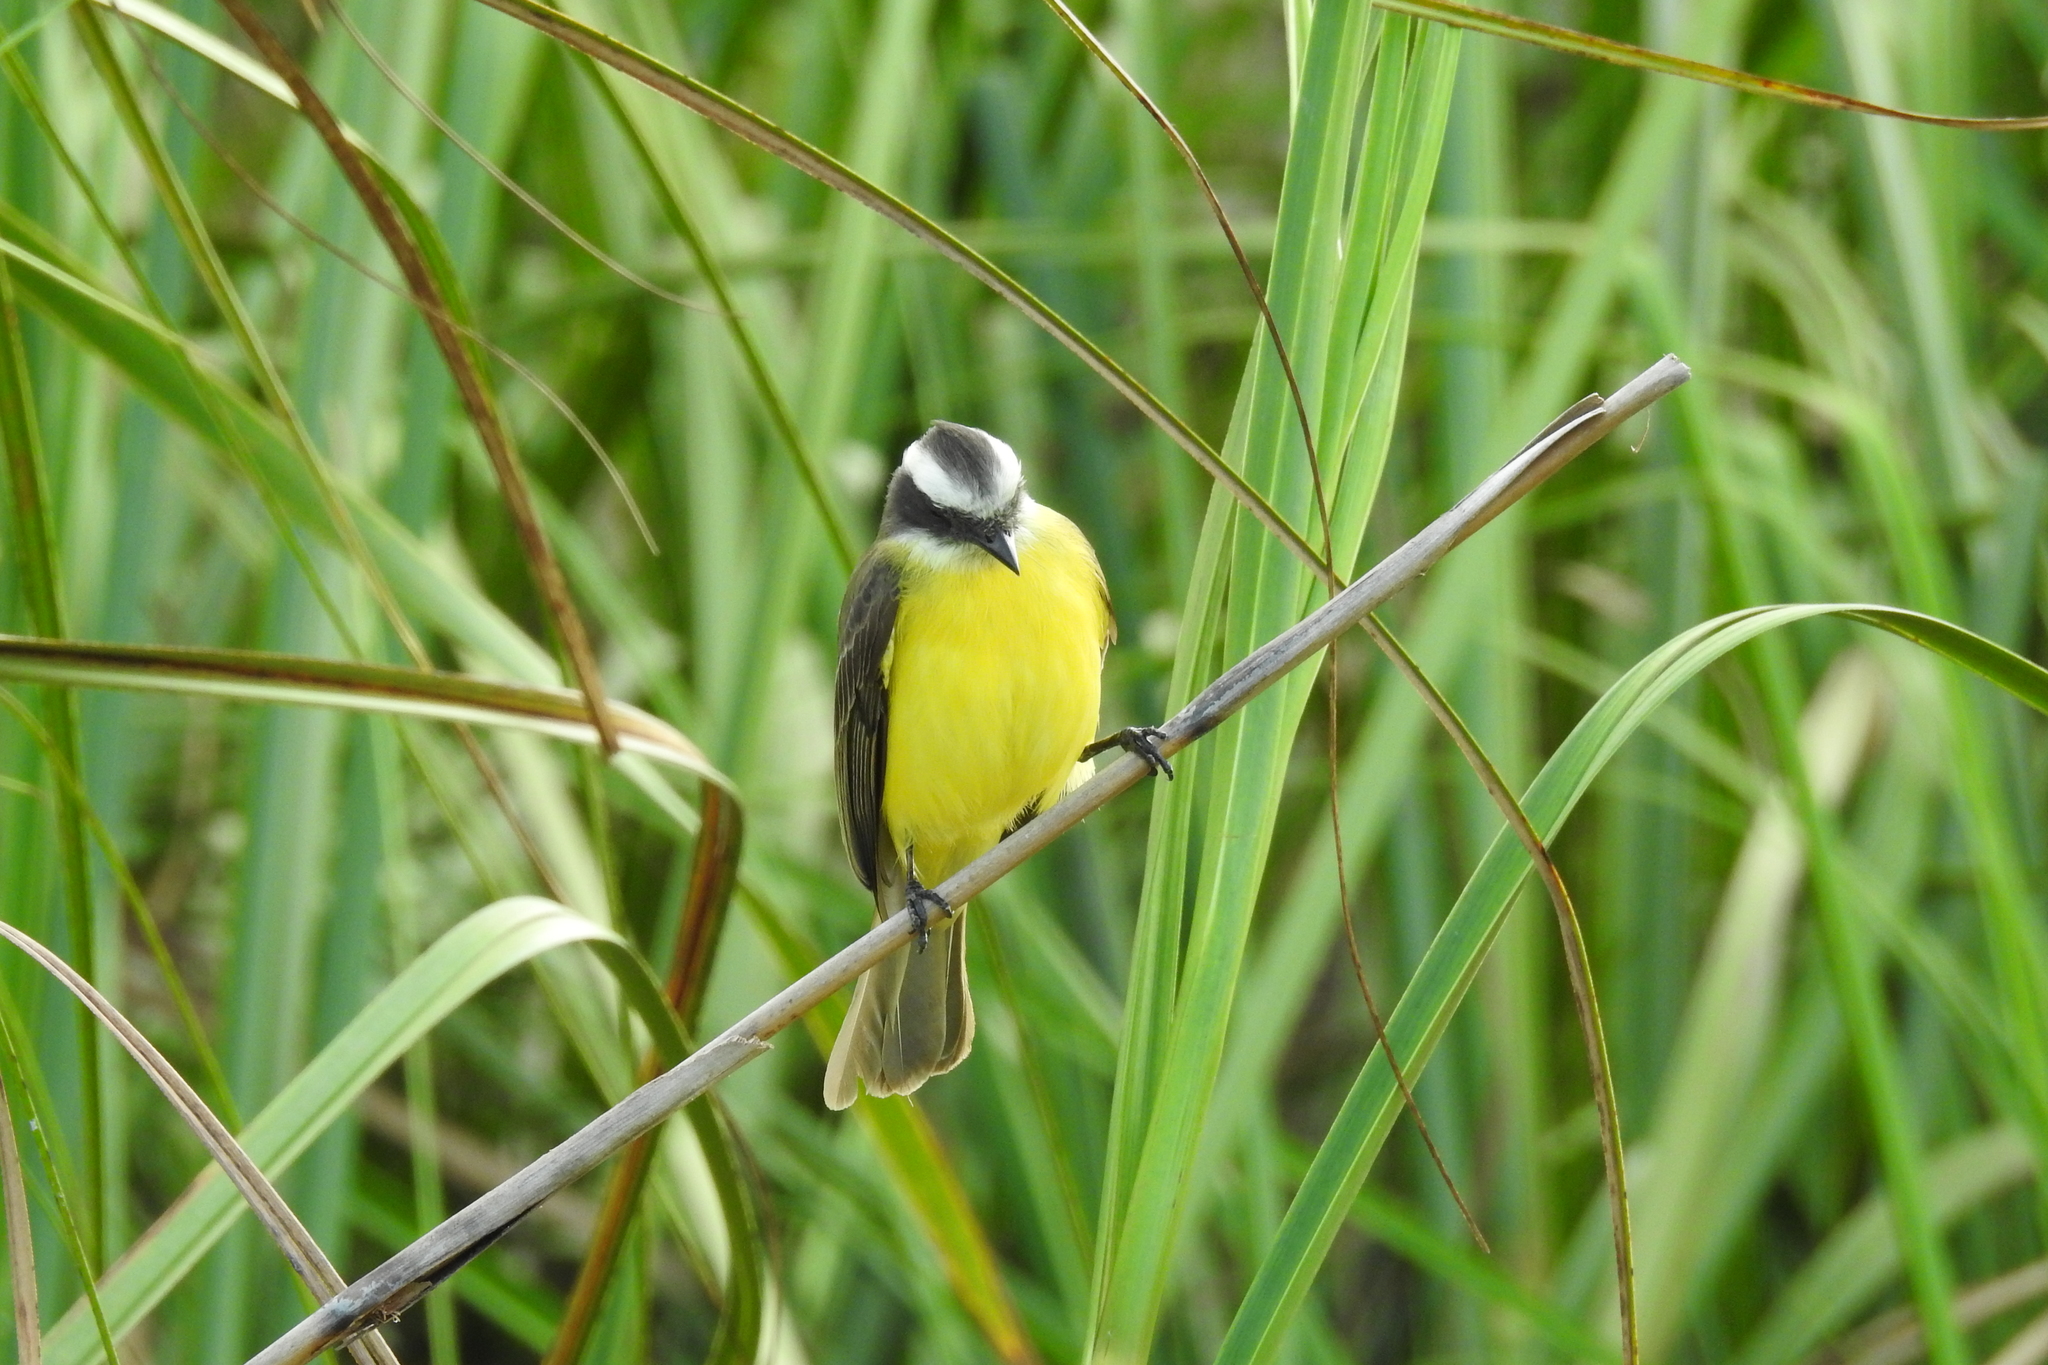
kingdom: Animalia
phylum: Chordata
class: Aves
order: Passeriformes
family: Tyrannidae
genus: Myiozetetes
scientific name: Myiozetetes similis
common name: Social flycatcher
